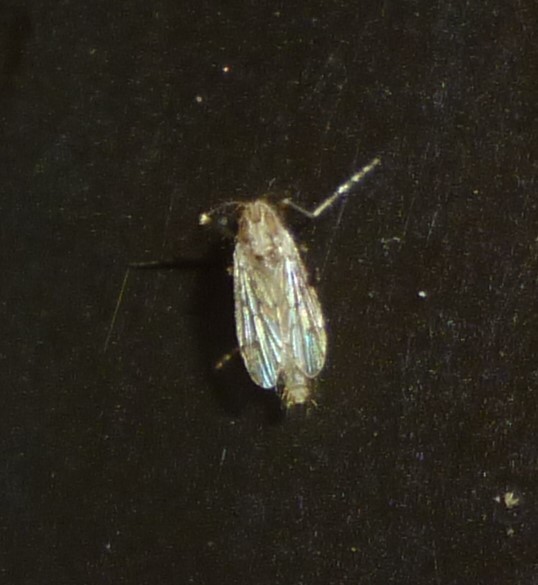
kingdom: Animalia
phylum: Arthropoda
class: Insecta
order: Diptera
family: Chaoboridae
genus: Chaoborus
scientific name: Chaoborus punctipennis
